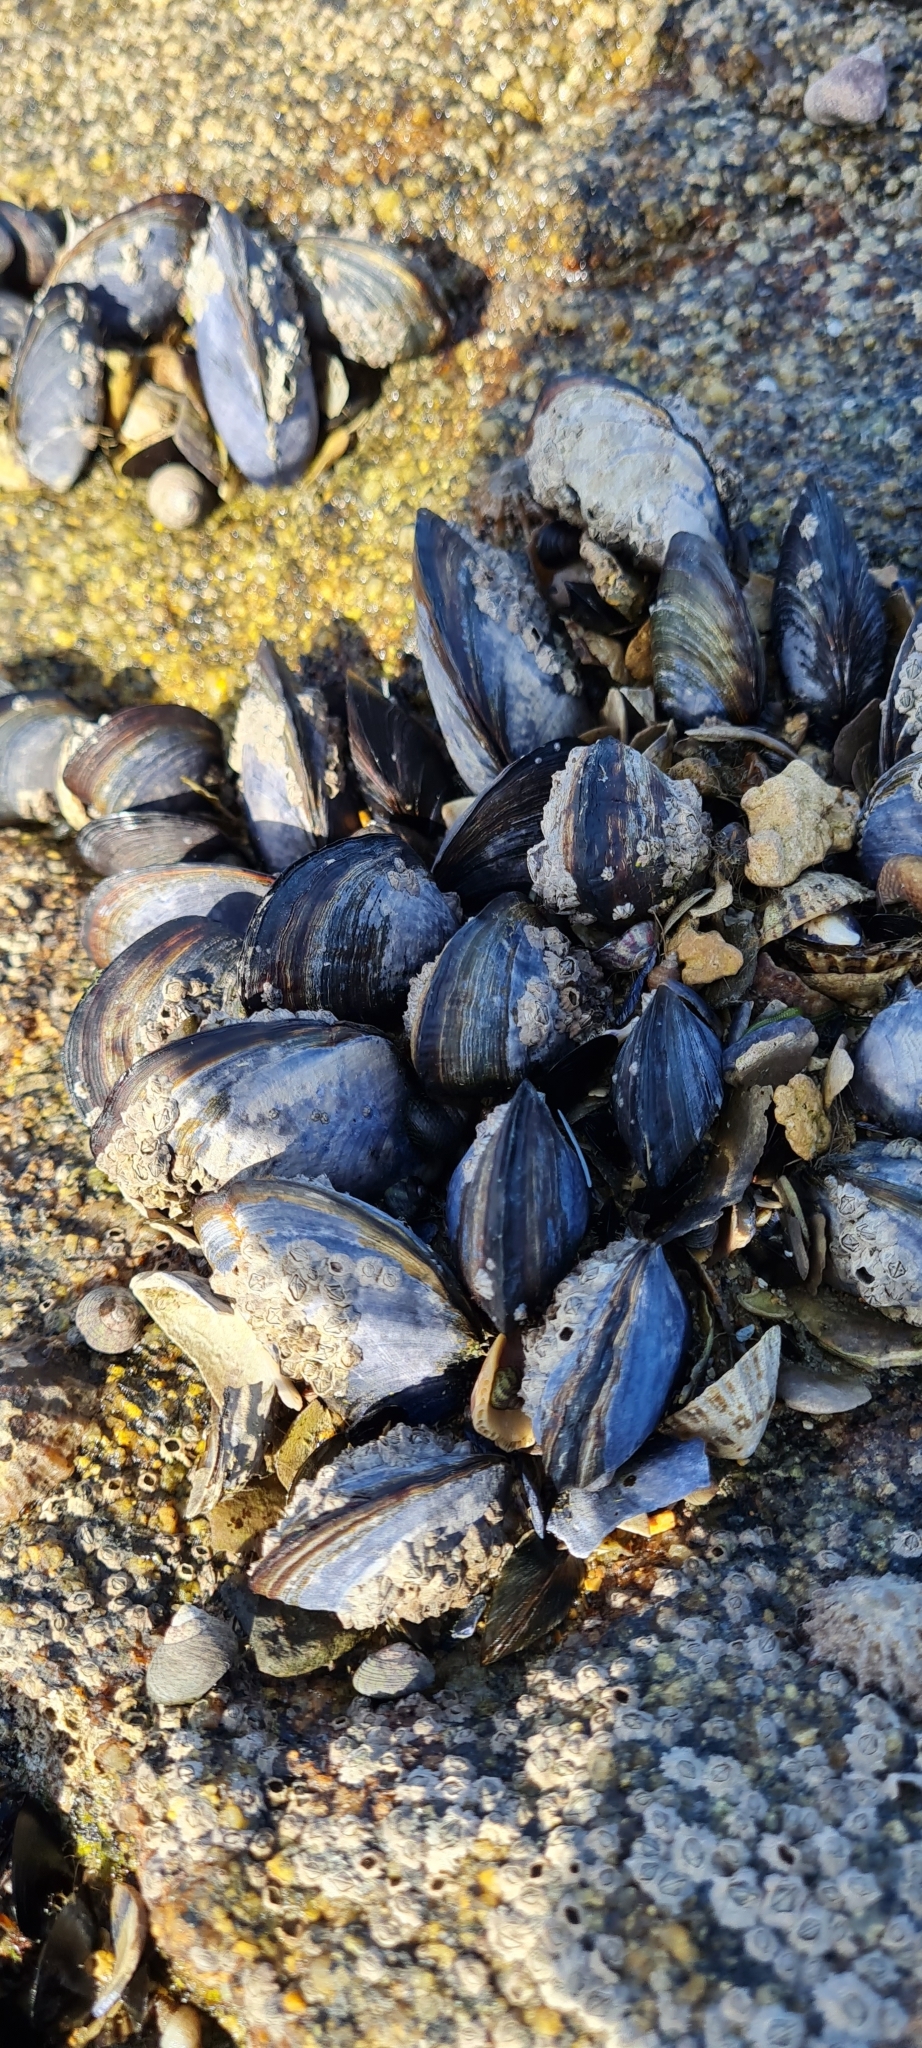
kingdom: Animalia
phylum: Mollusca
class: Bivalvia
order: Mytilida
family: Mytilidae
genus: Mytilus
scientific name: Mytilus edulis
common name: Blue mussel
